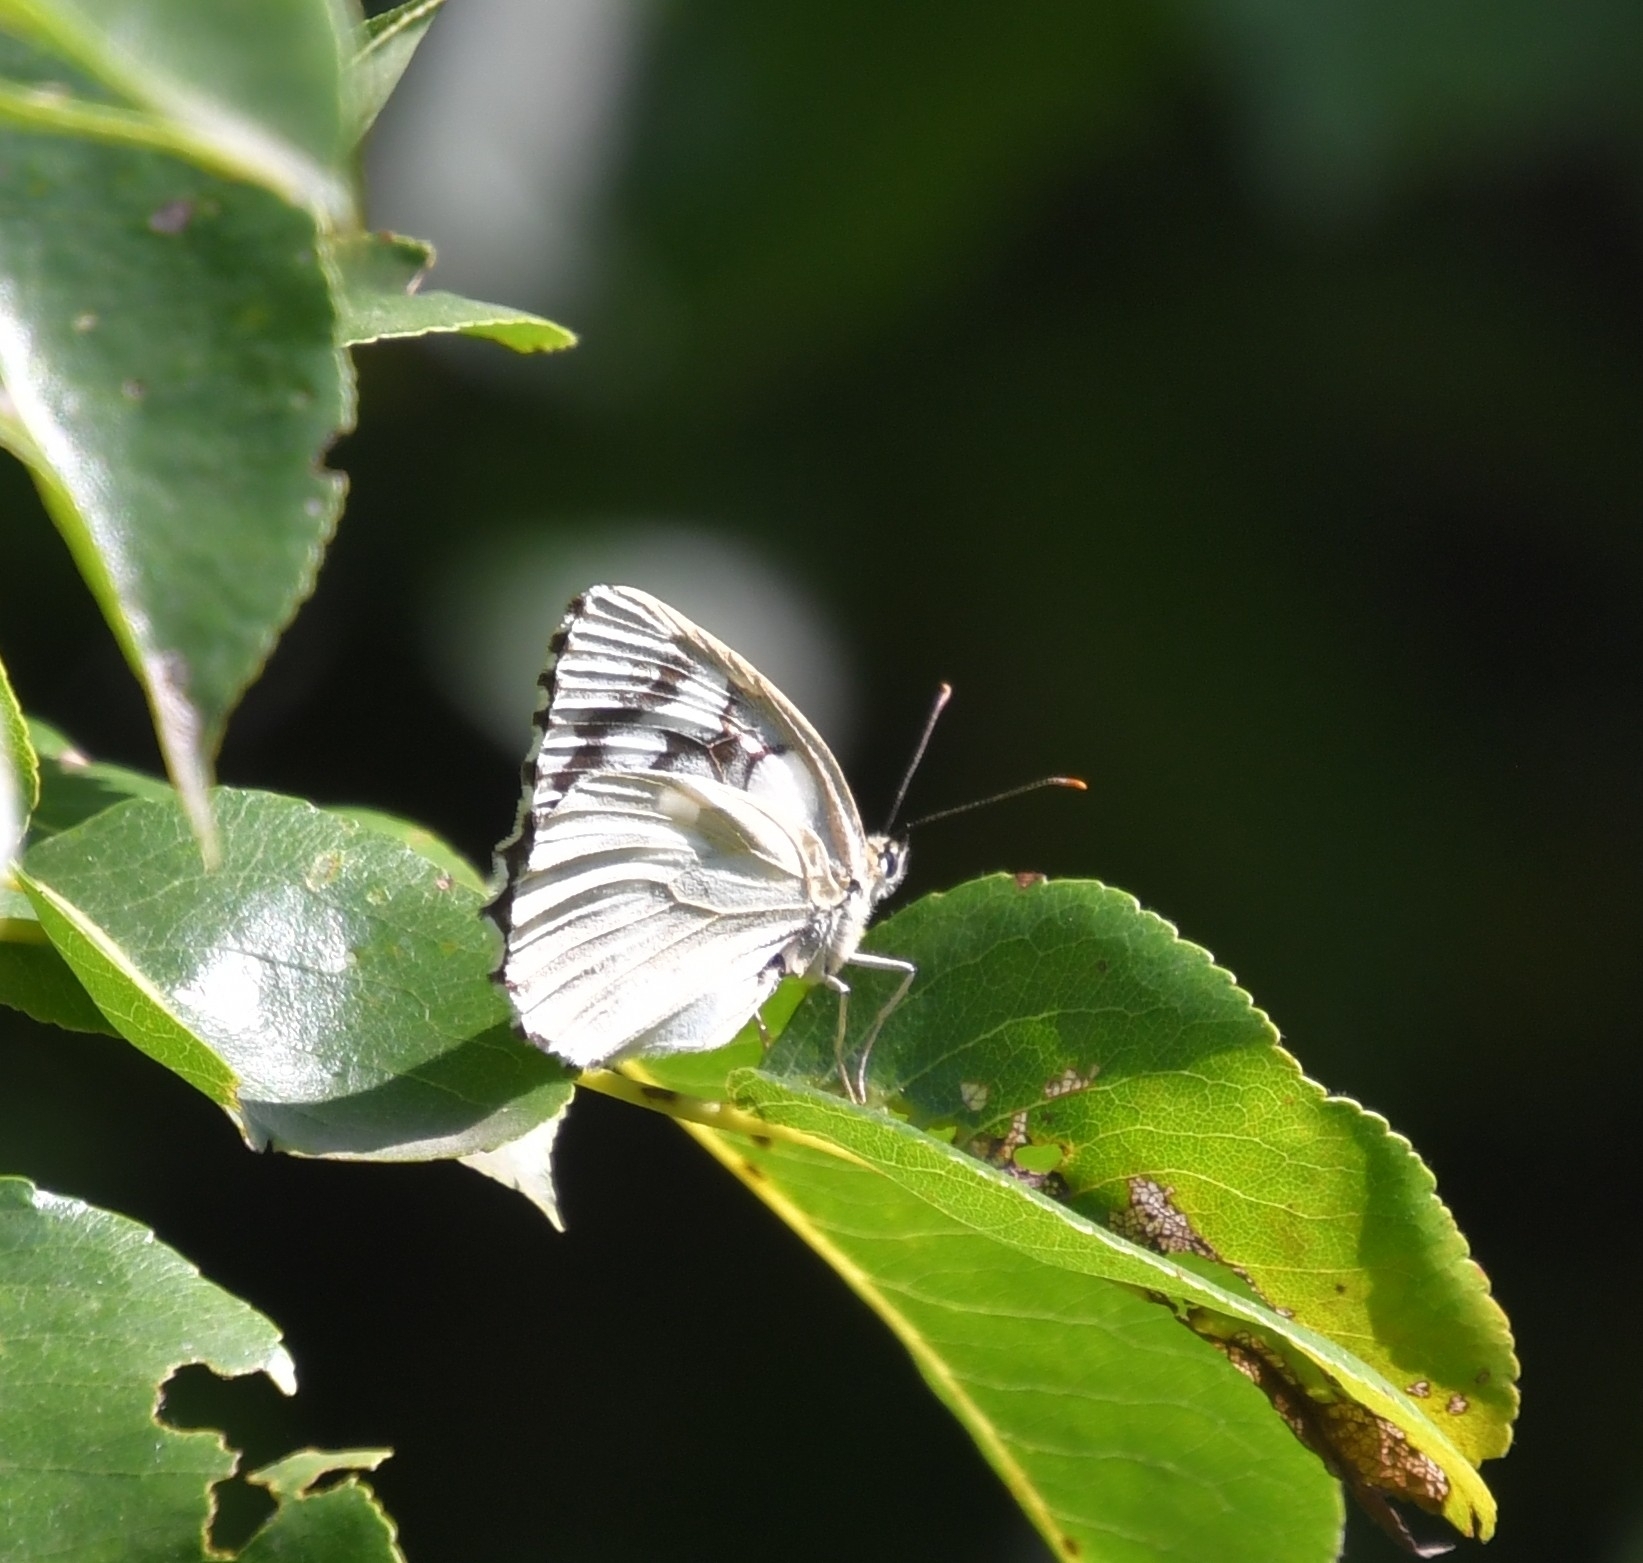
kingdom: Animalia
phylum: Arthropoda
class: Insecta
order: Lepidoptera
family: Nymphalidae
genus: Melanargia
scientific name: Melanargia galathea
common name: Marbled white
